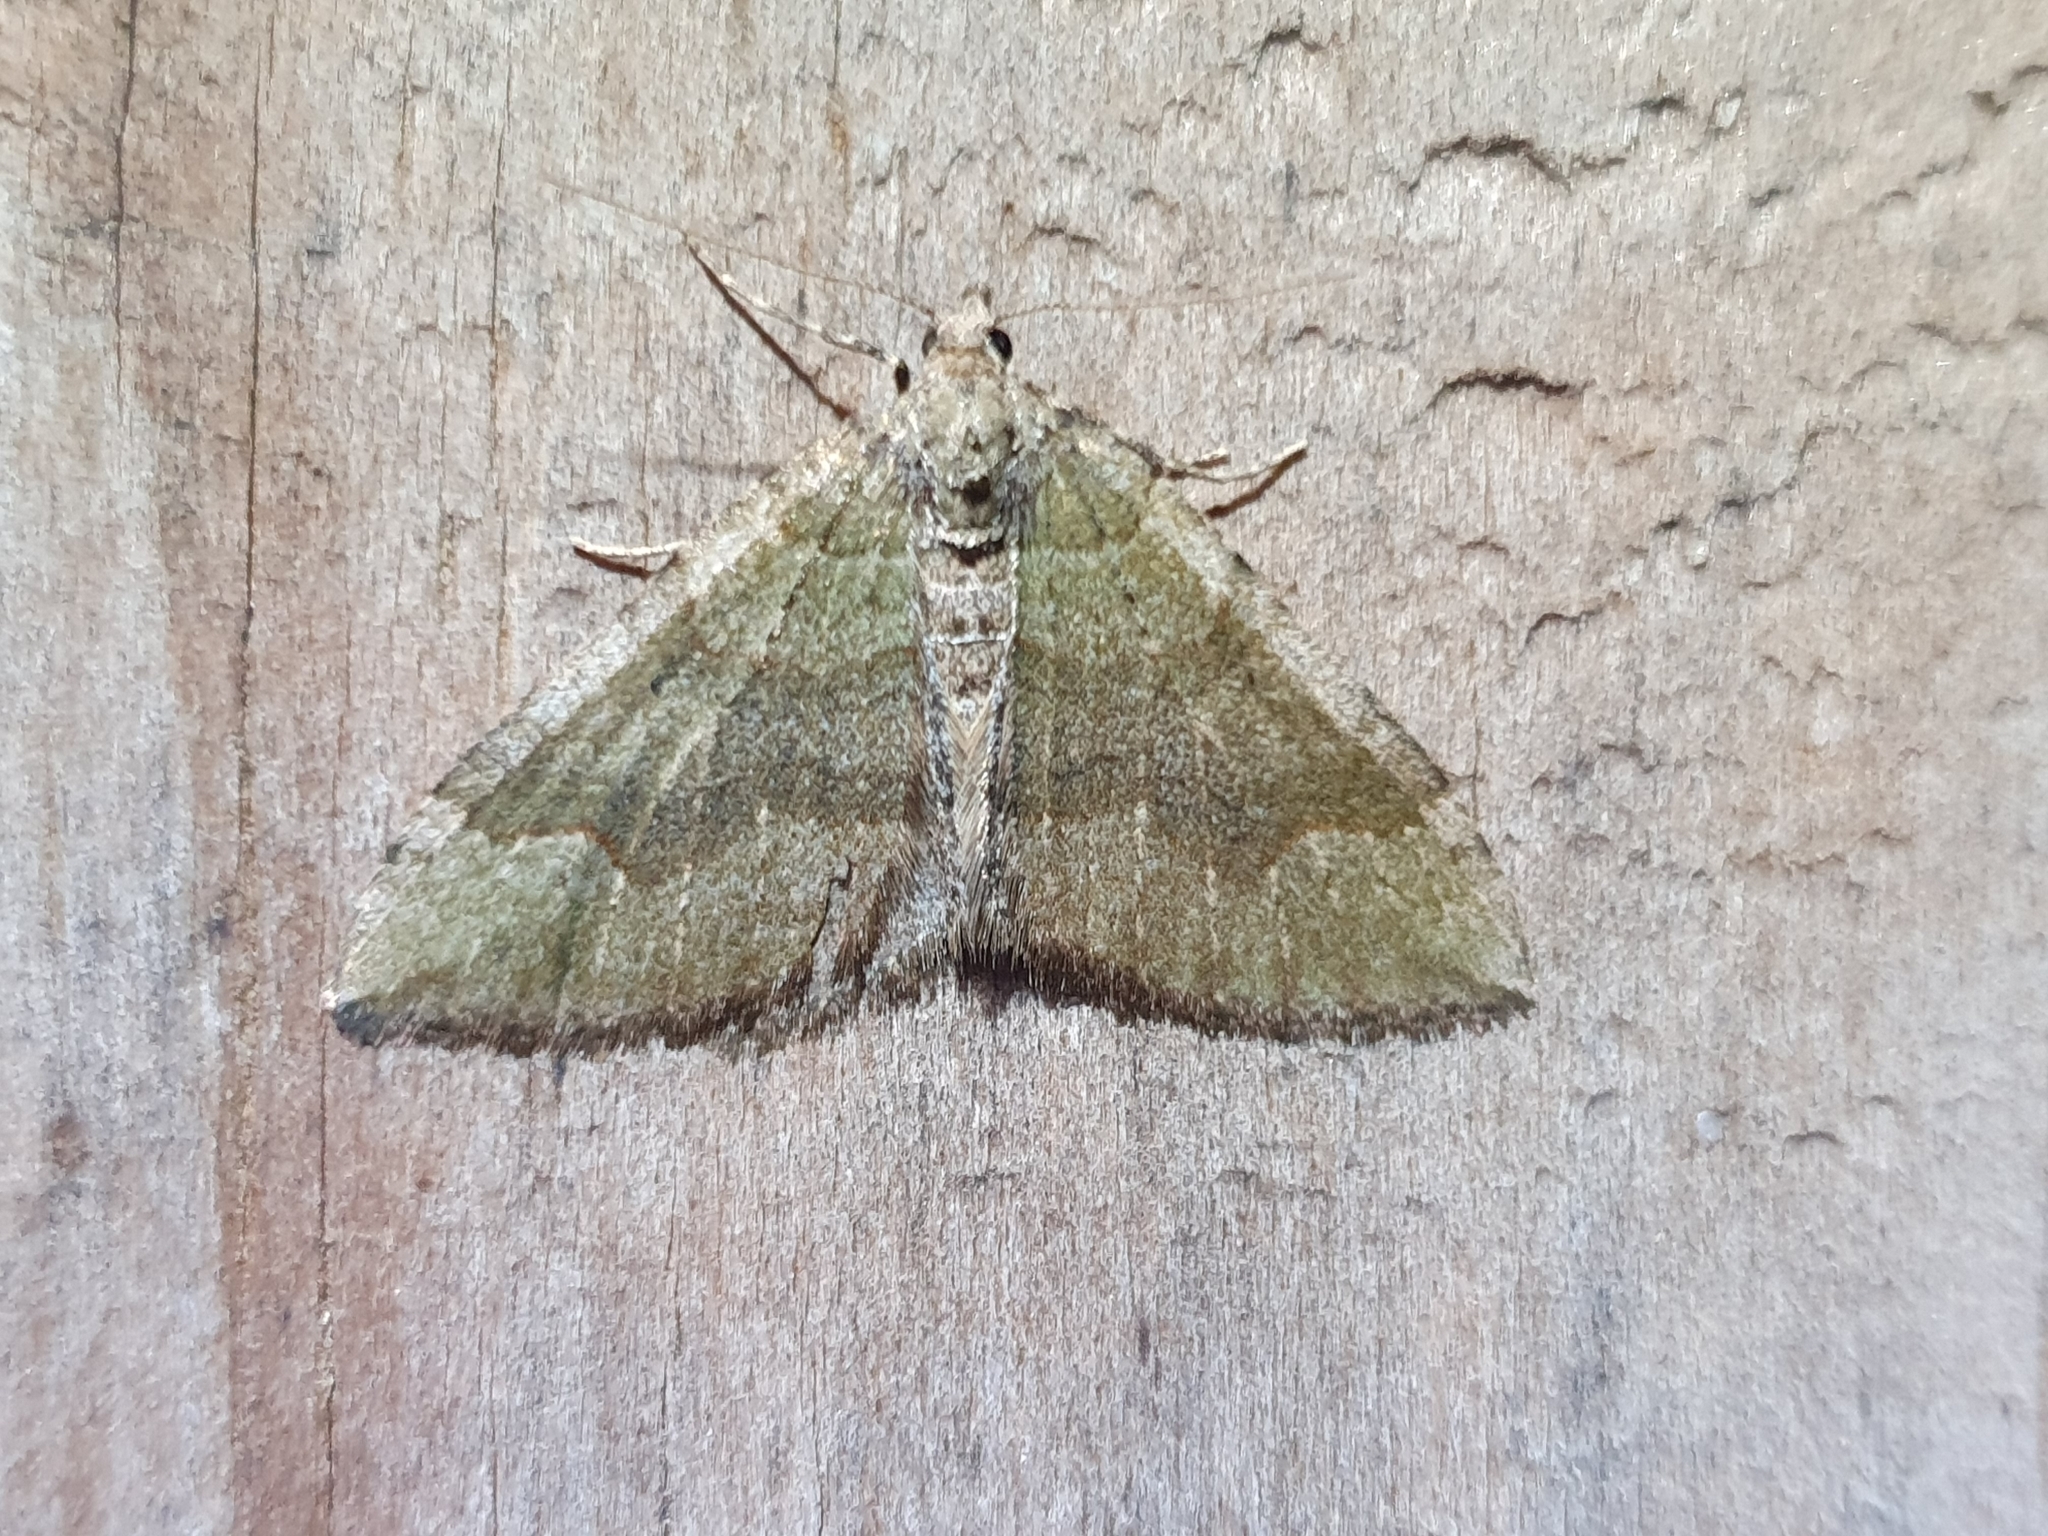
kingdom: Animalia
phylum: Arthropoda
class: Insecta
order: Lepidoptera
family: Geometridae
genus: Epyaxa
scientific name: Epyaxa rosearia
